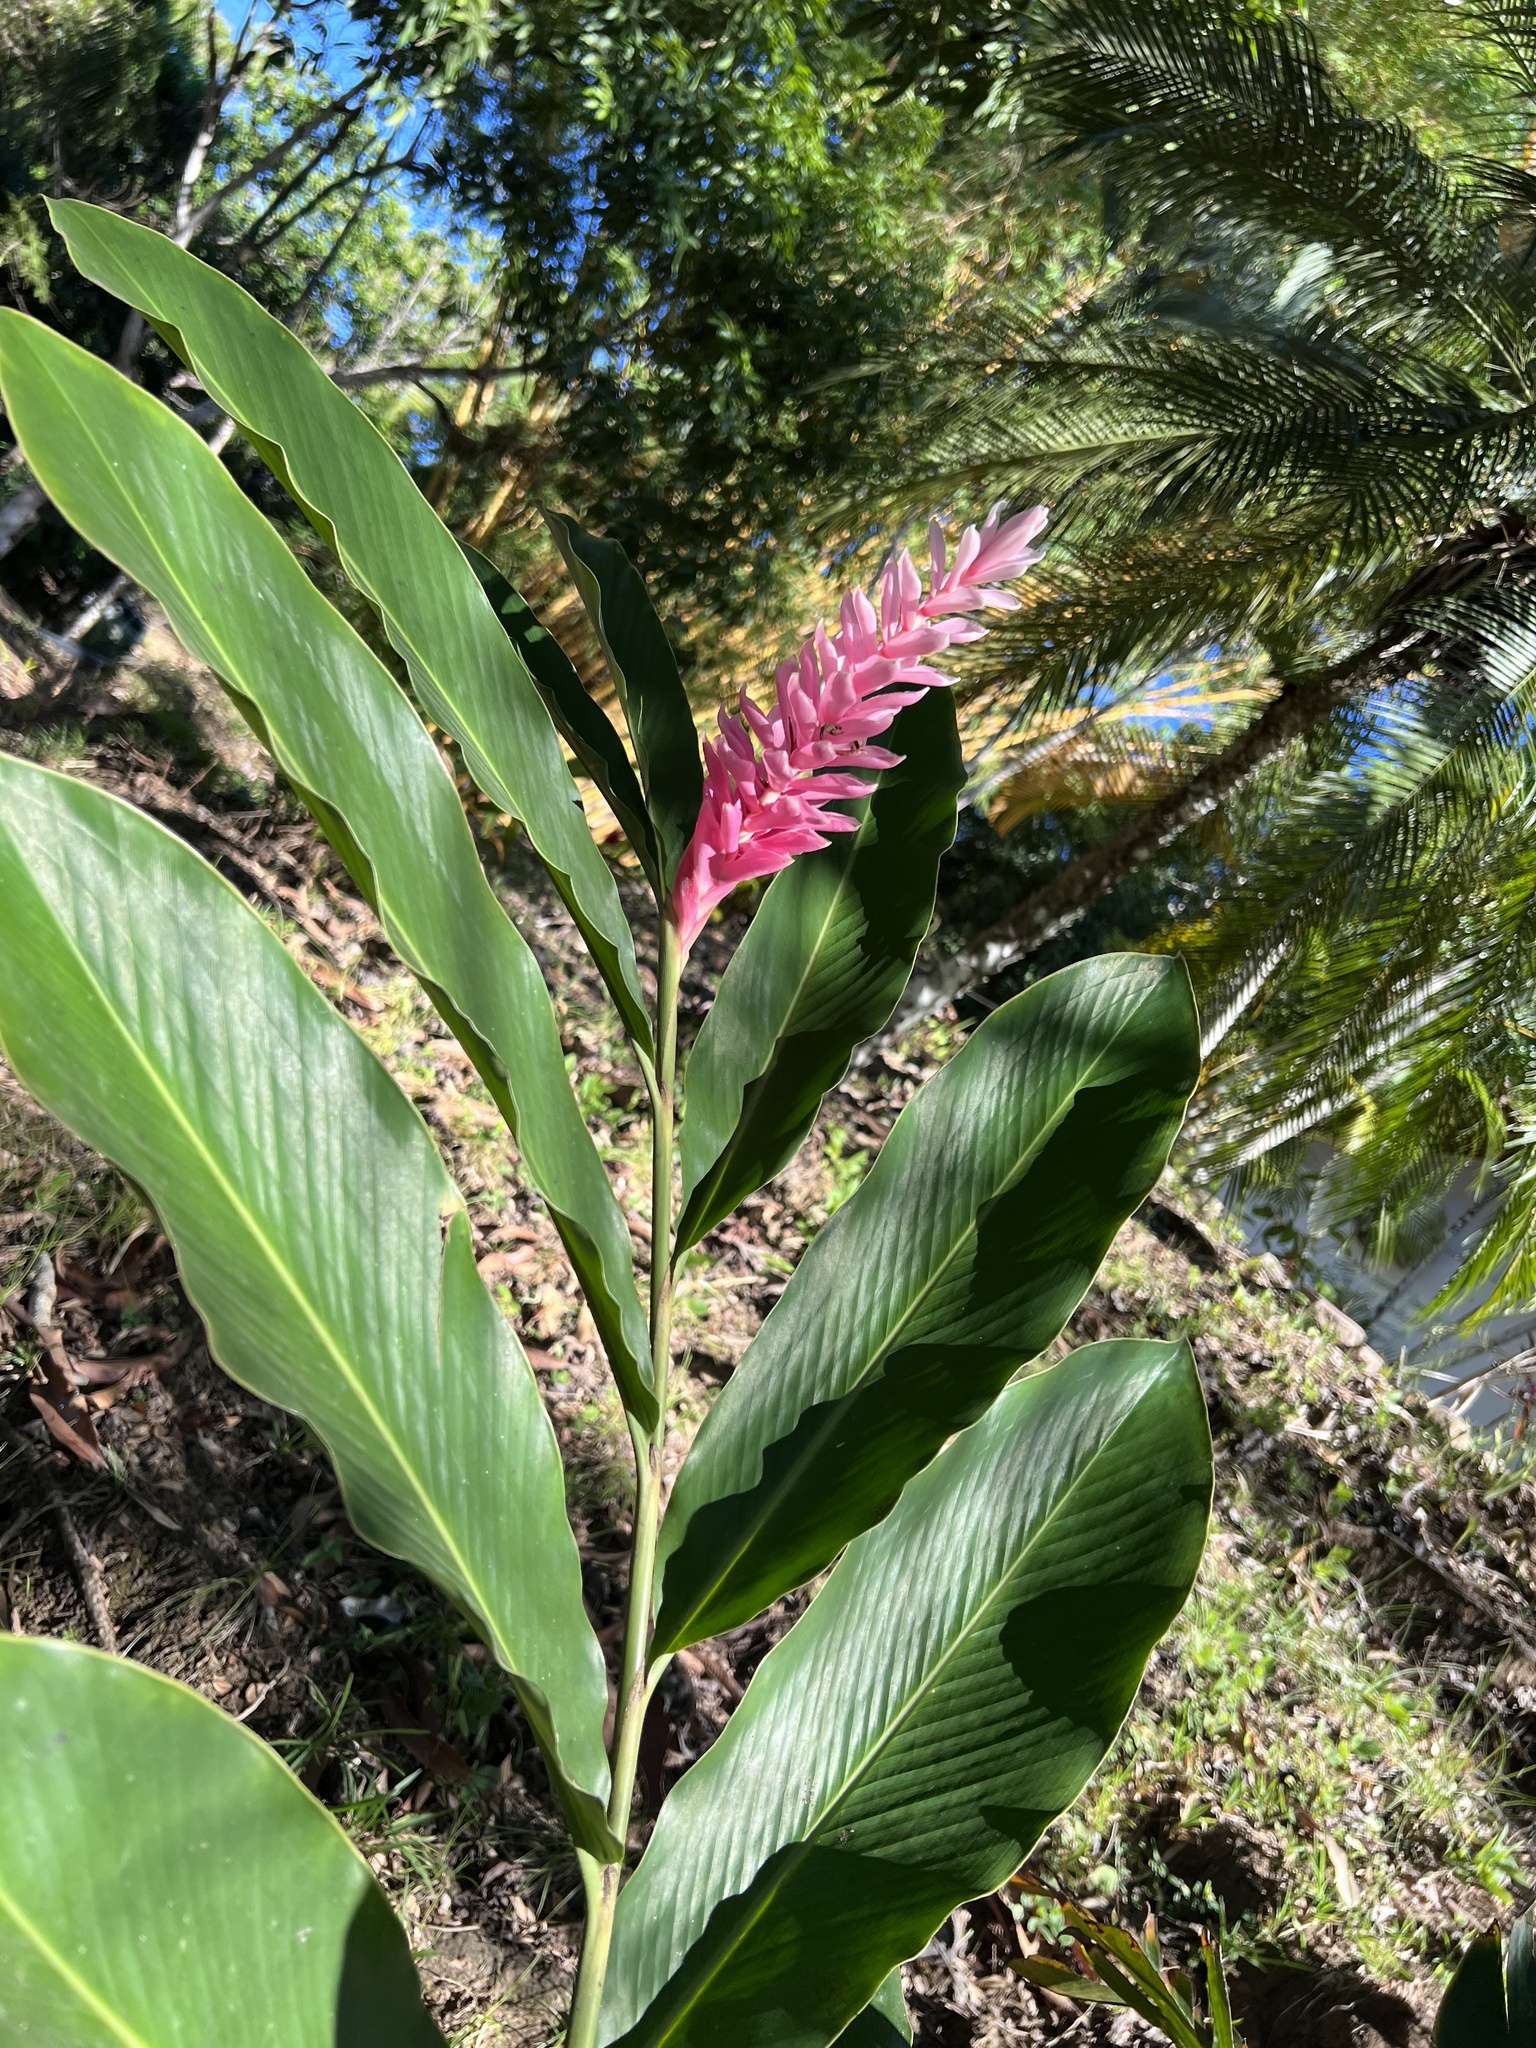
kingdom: Plantae
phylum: Tracheophyta
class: Liliopsida
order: Zingiberales
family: Zingiberaceae
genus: Alpinia
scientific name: Alpinia purpurata
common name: Red ginger
